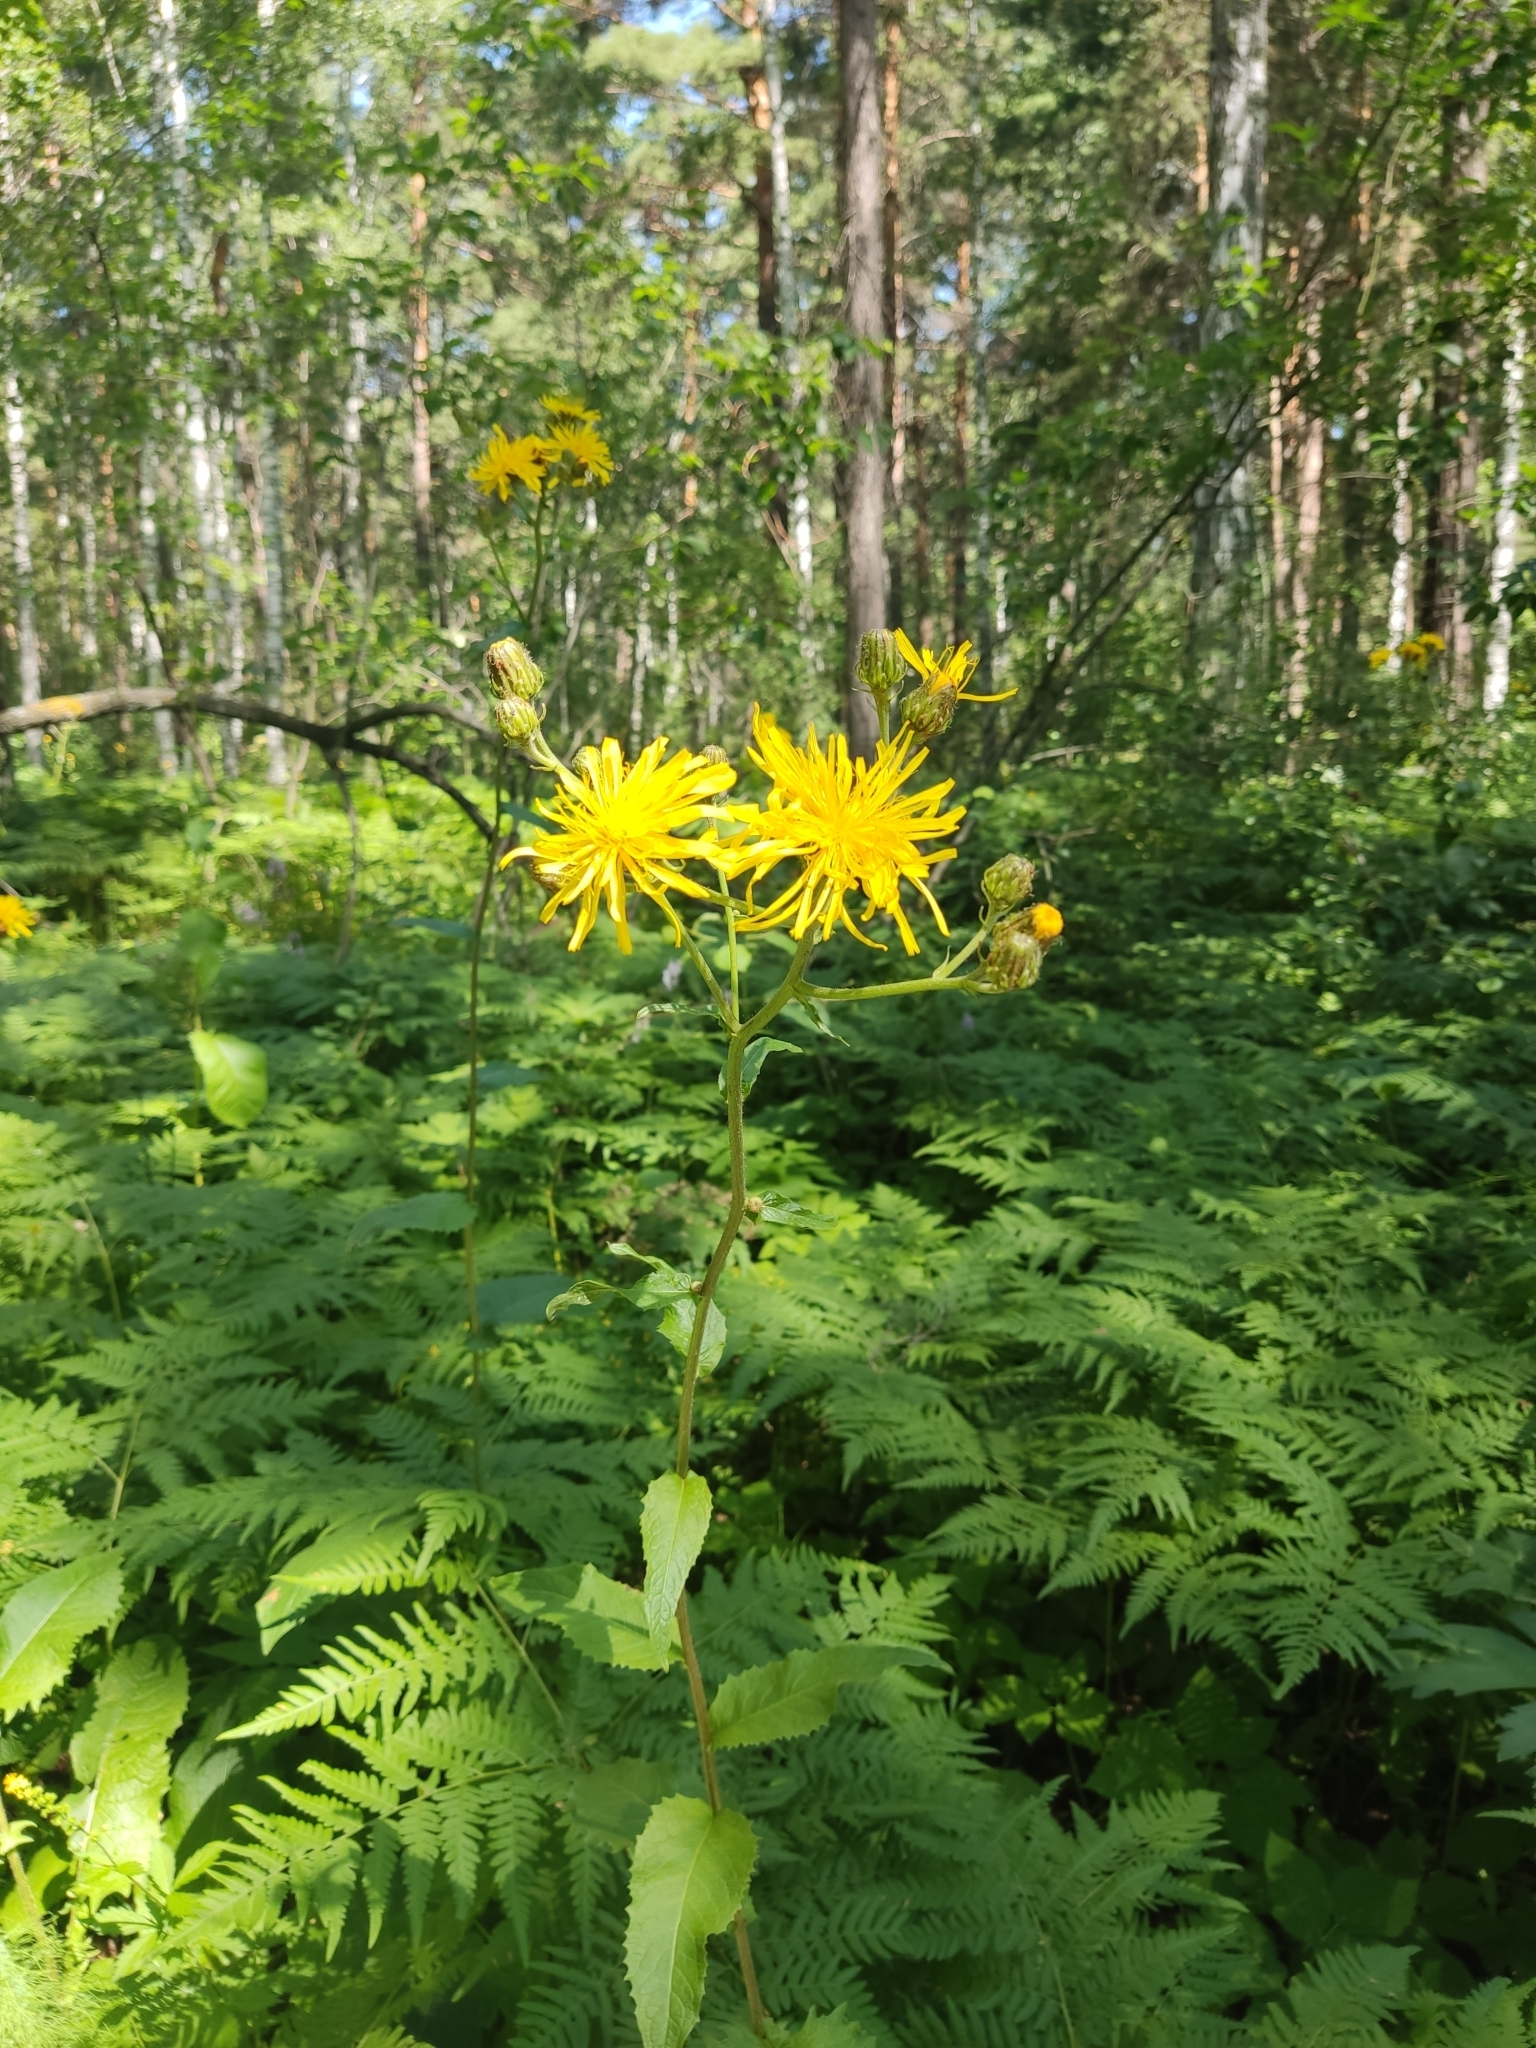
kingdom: Plantae
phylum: Tracheophyta
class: Magnoliopsida
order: Asterales
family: Asteraceae
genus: Crepis
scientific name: Crepis sibirica
